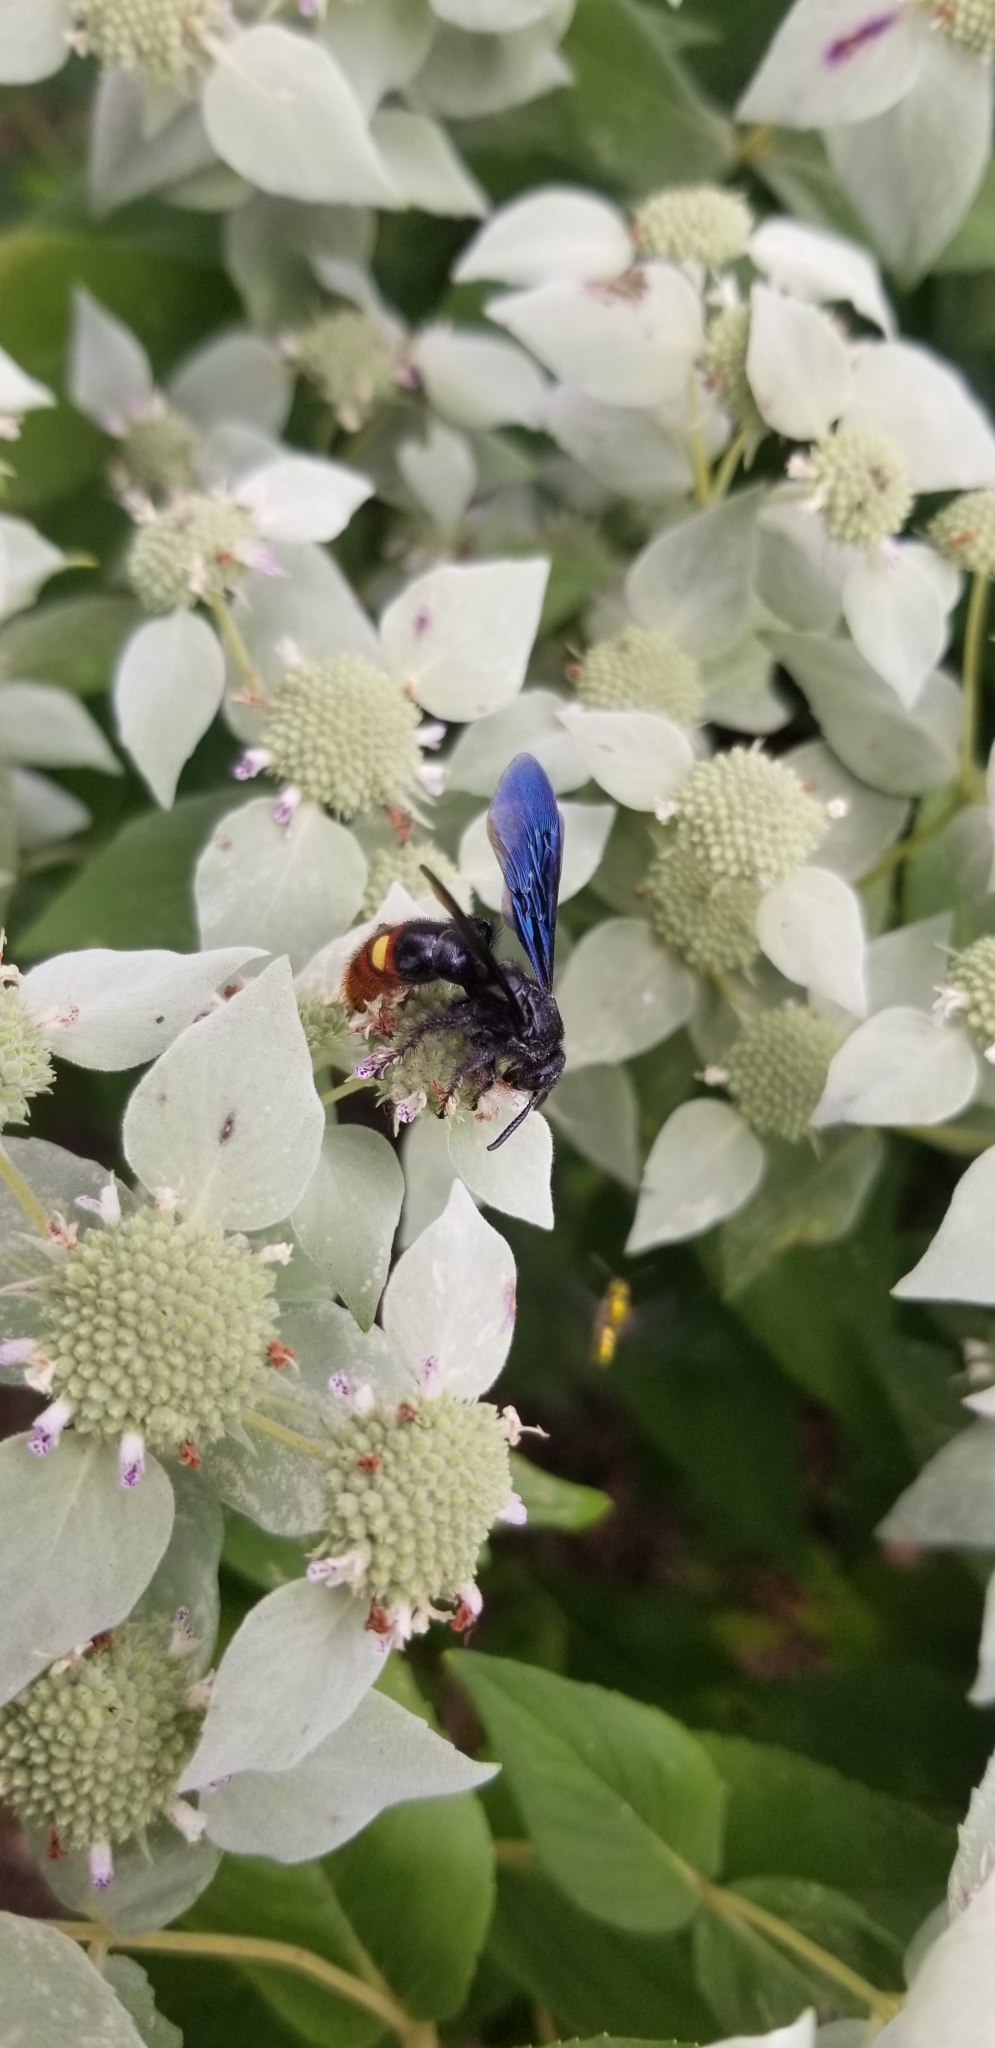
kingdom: Animalia
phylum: Arthropoda
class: Insecta
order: Hymenoptera
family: Scoliidae
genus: Scolia
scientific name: Scolia dubia
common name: Blue-winged scoliid wasp
